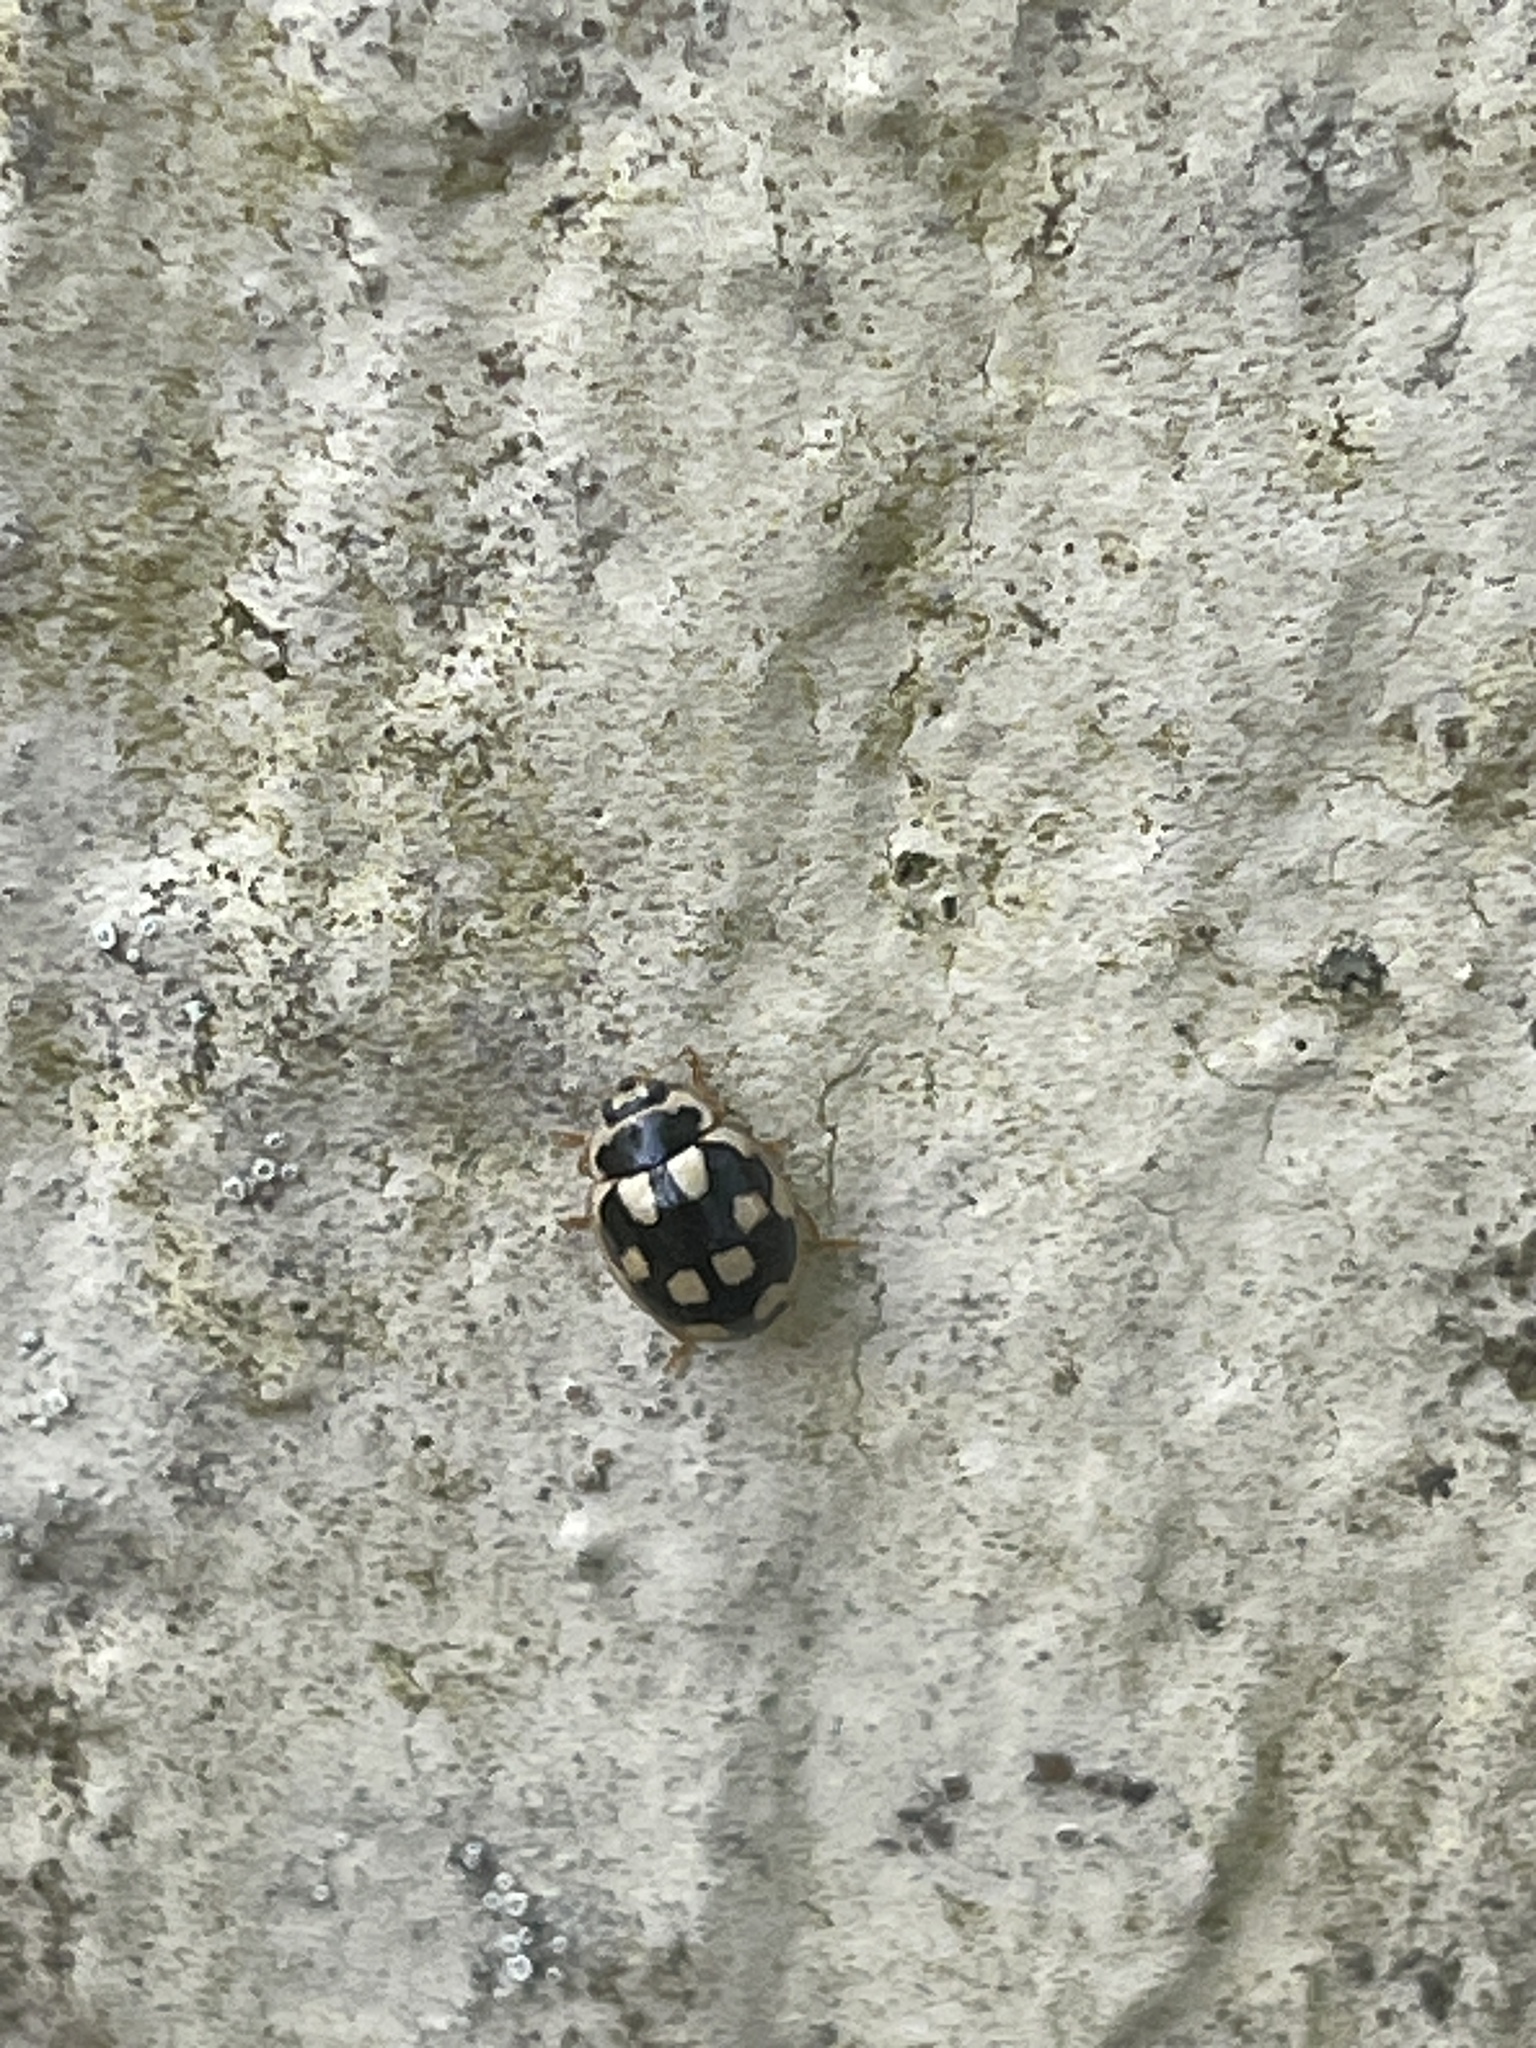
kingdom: Animalia
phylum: Arthropoda
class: Insecta
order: Coleoptera
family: Coccinellidae
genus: Propylaea
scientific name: Propylaea quatuordecimpunctata
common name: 14-spotted ladybird beetle
